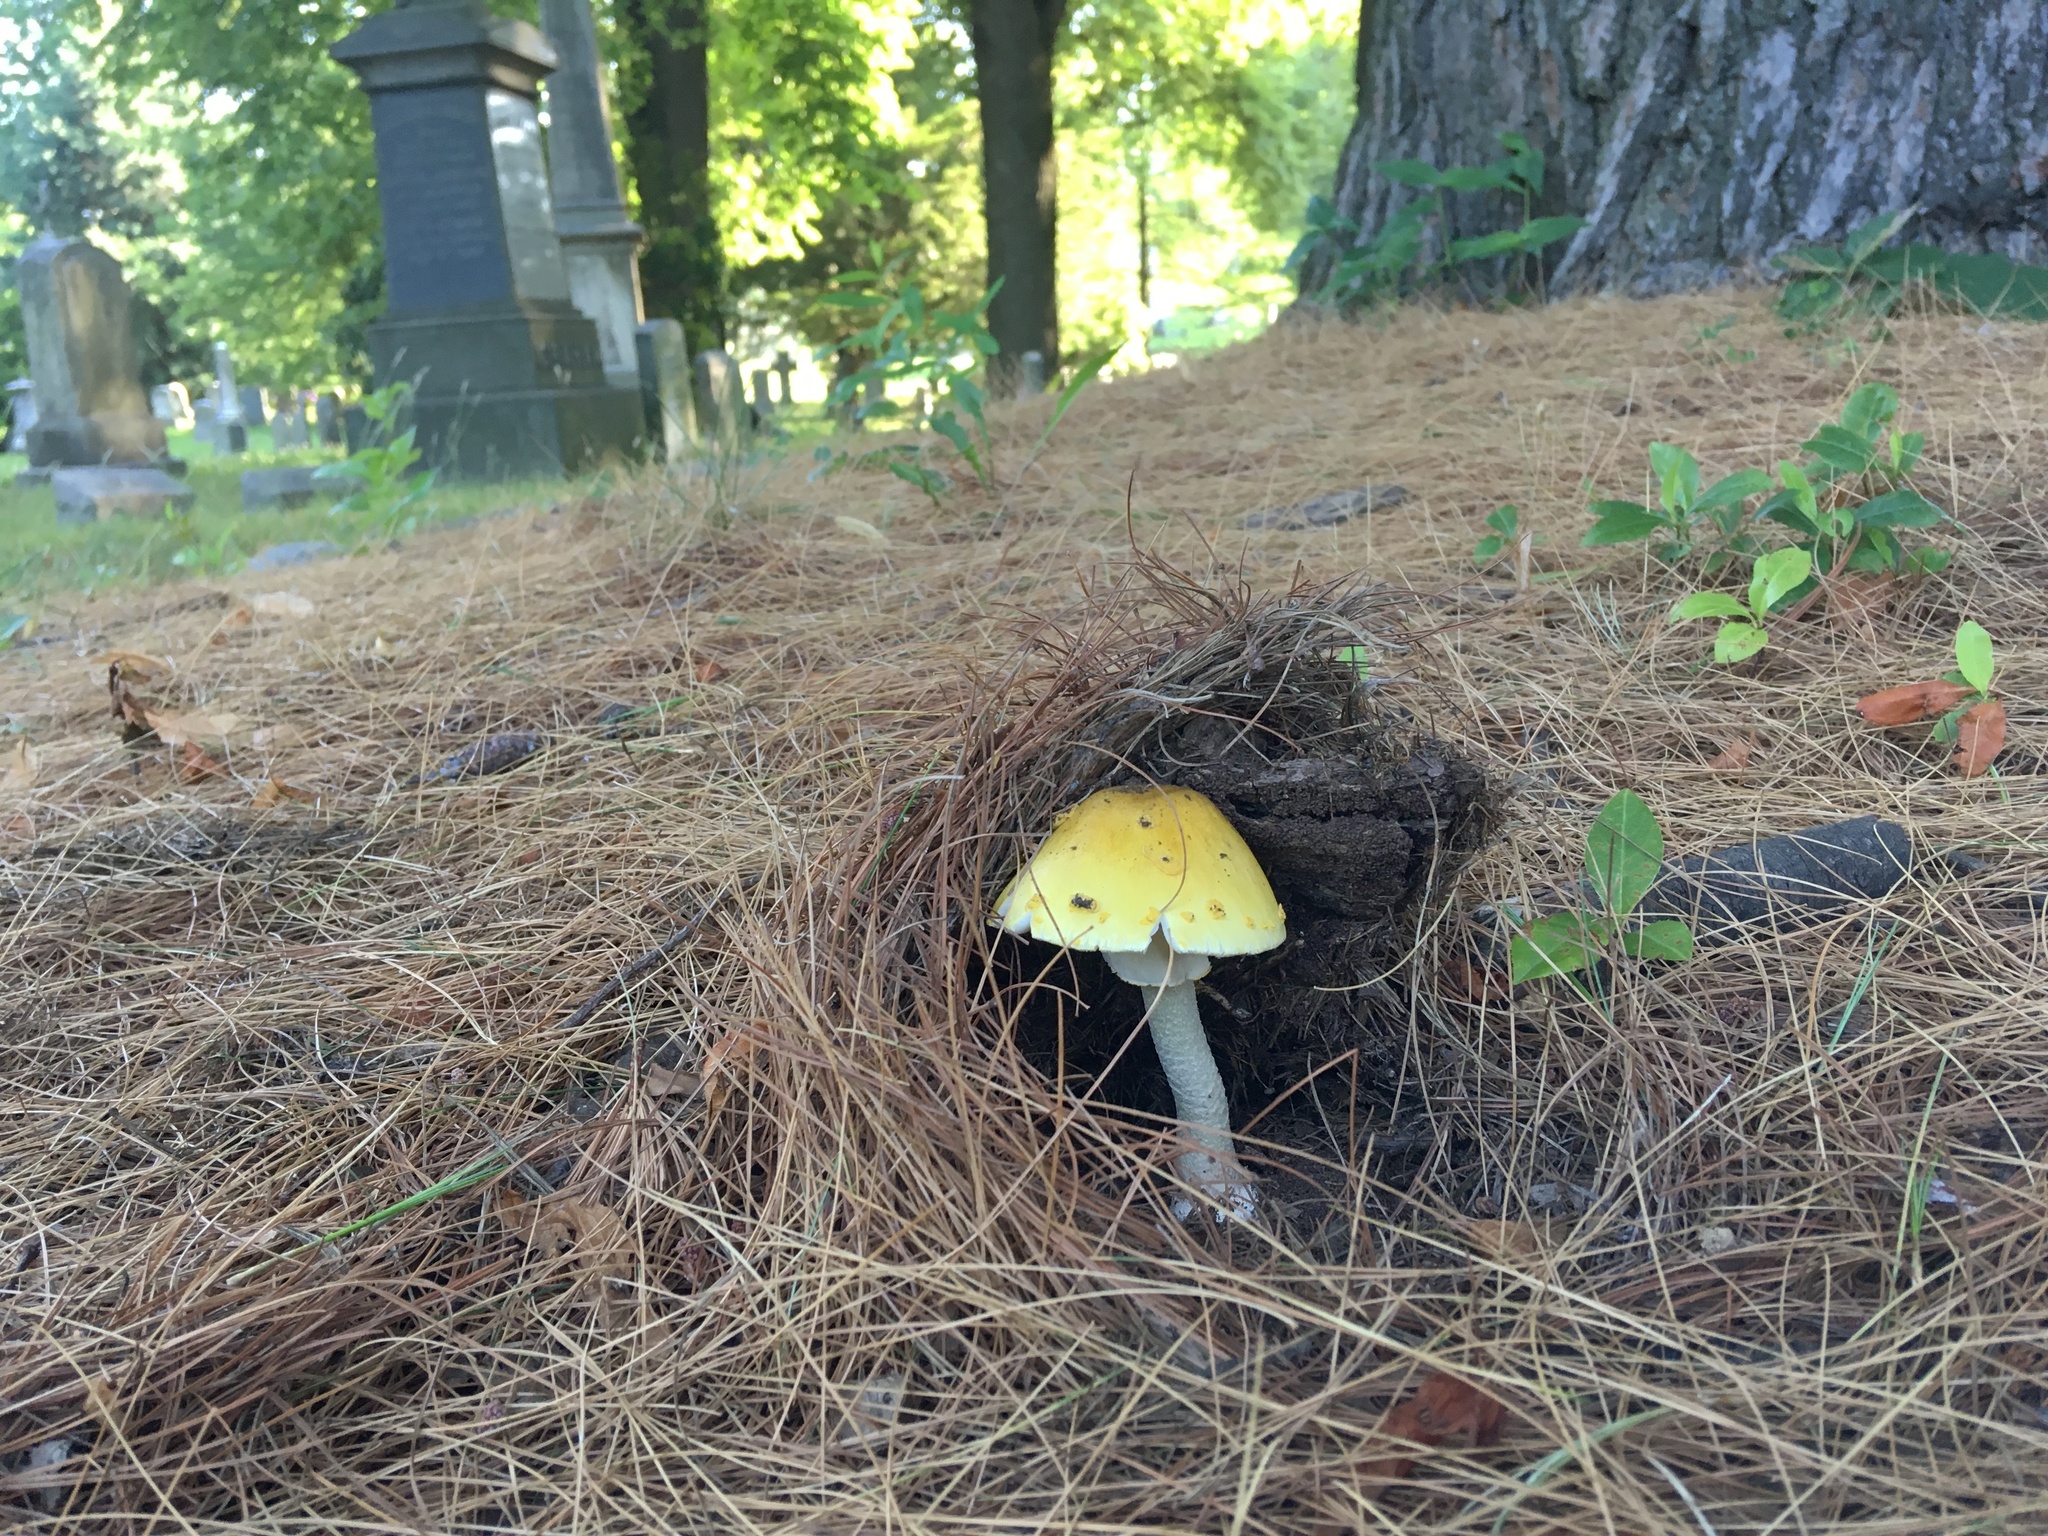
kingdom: Fungi
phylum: Basidiomycota
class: Agaricomycetes
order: Agaricales
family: Amanitaceae
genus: Amanita
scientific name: Amanita flavorubens
